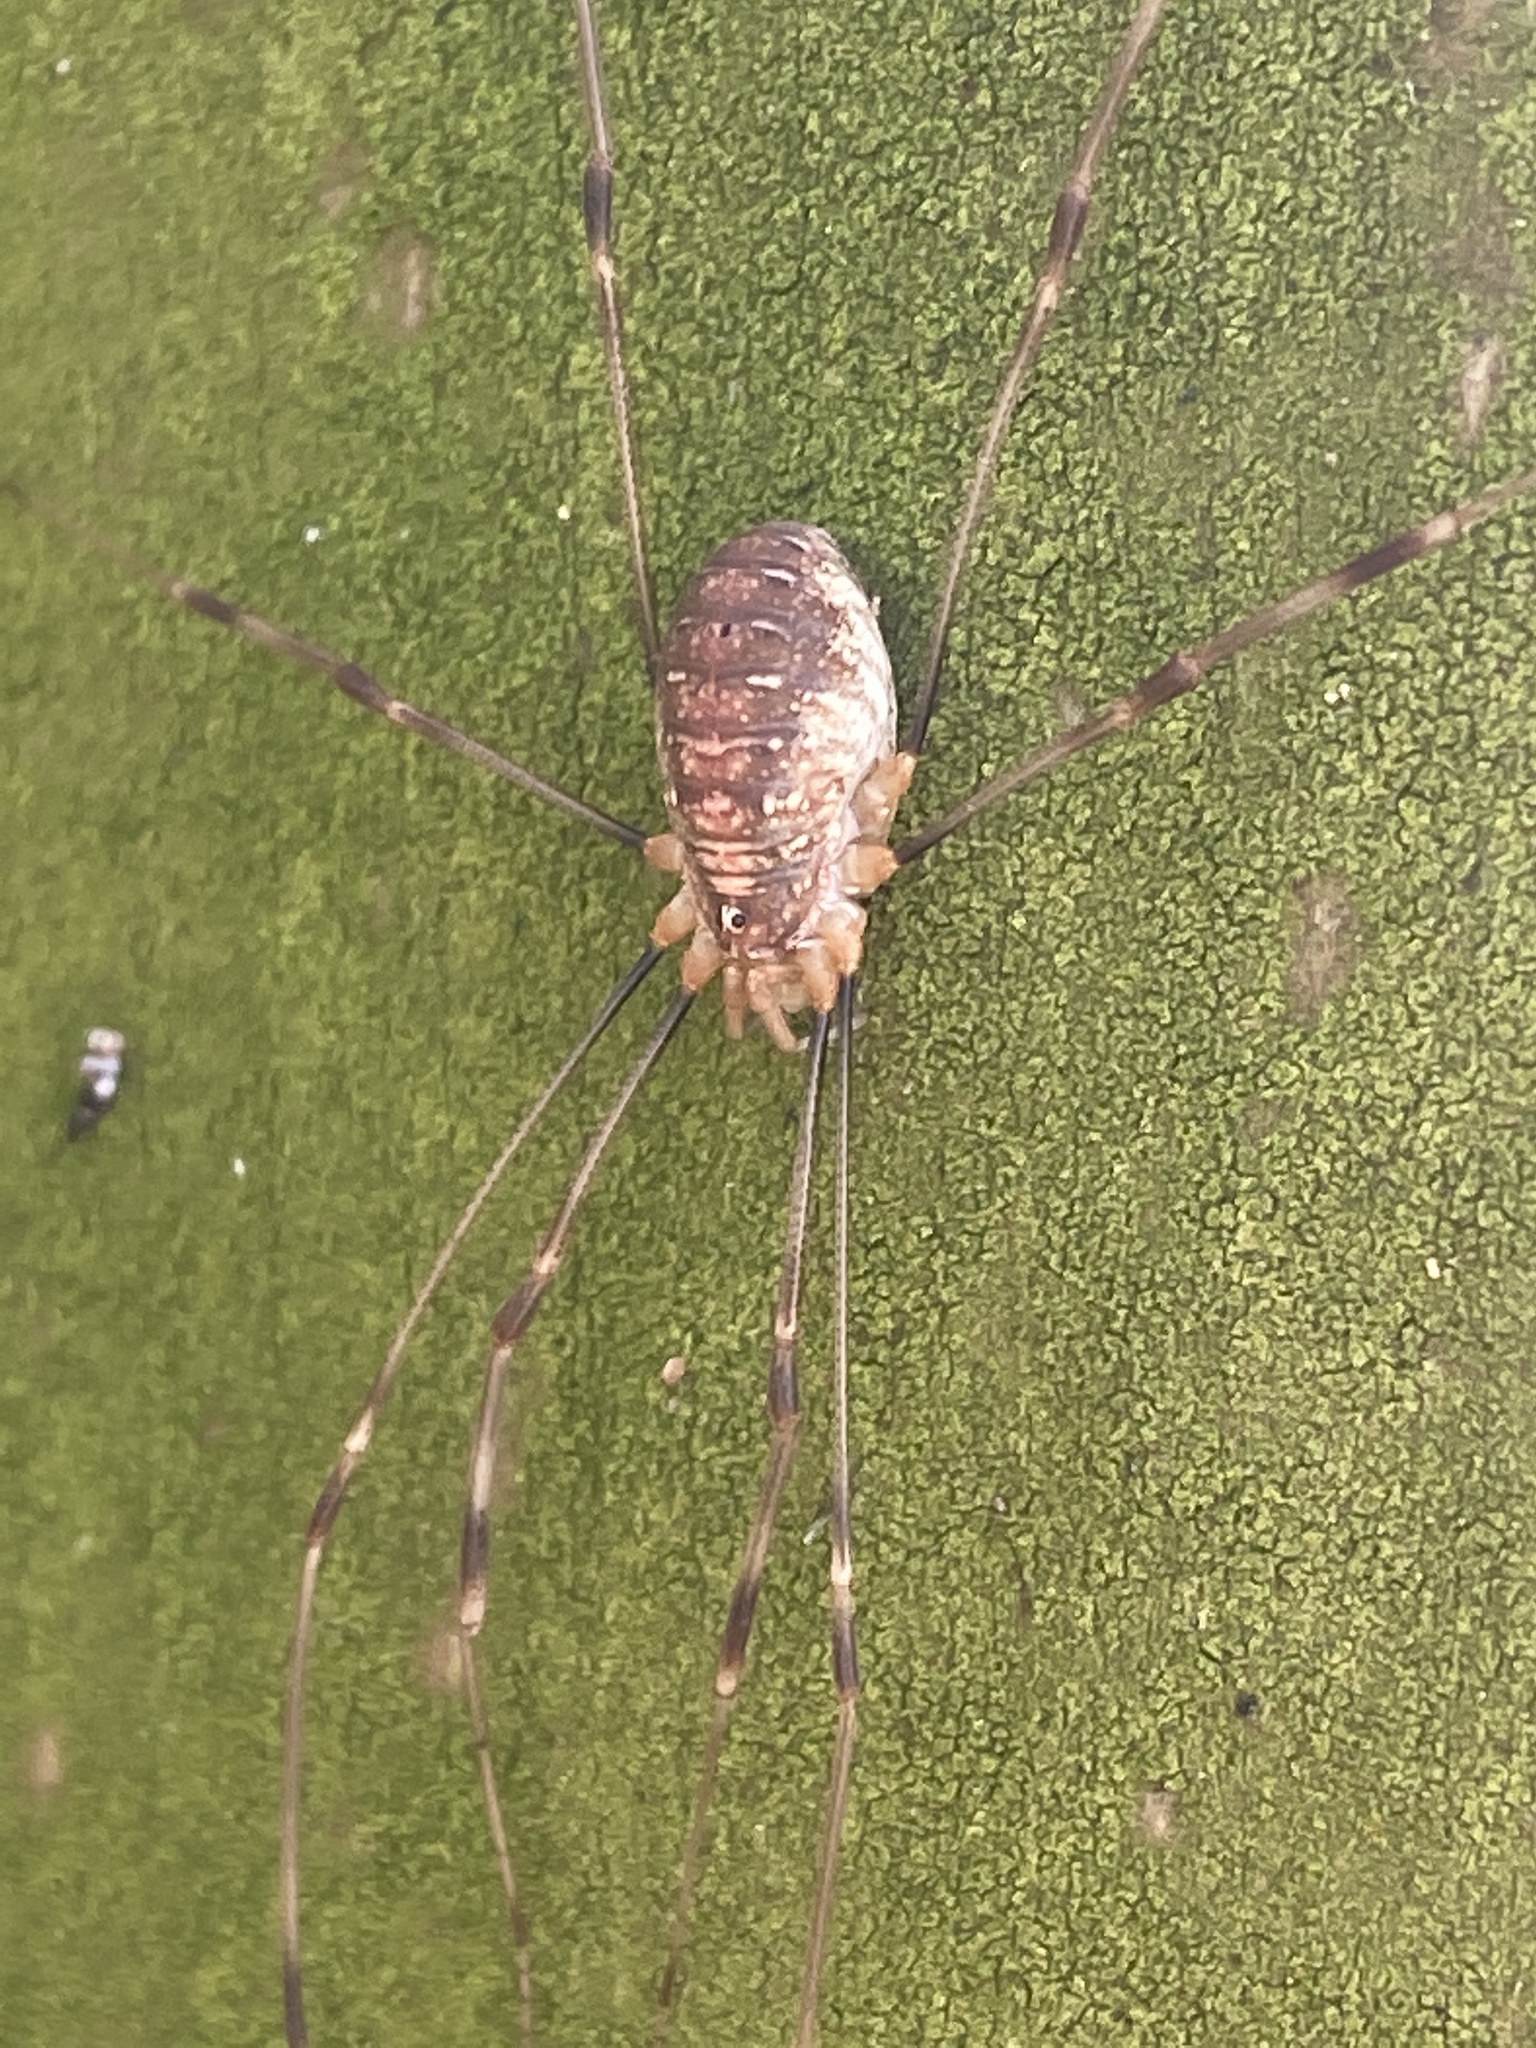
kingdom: Animalia
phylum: Arthropoda
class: Arachnida
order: Opiliones
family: Phalangiidae
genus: Opilio
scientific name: Opilio canestrinii
